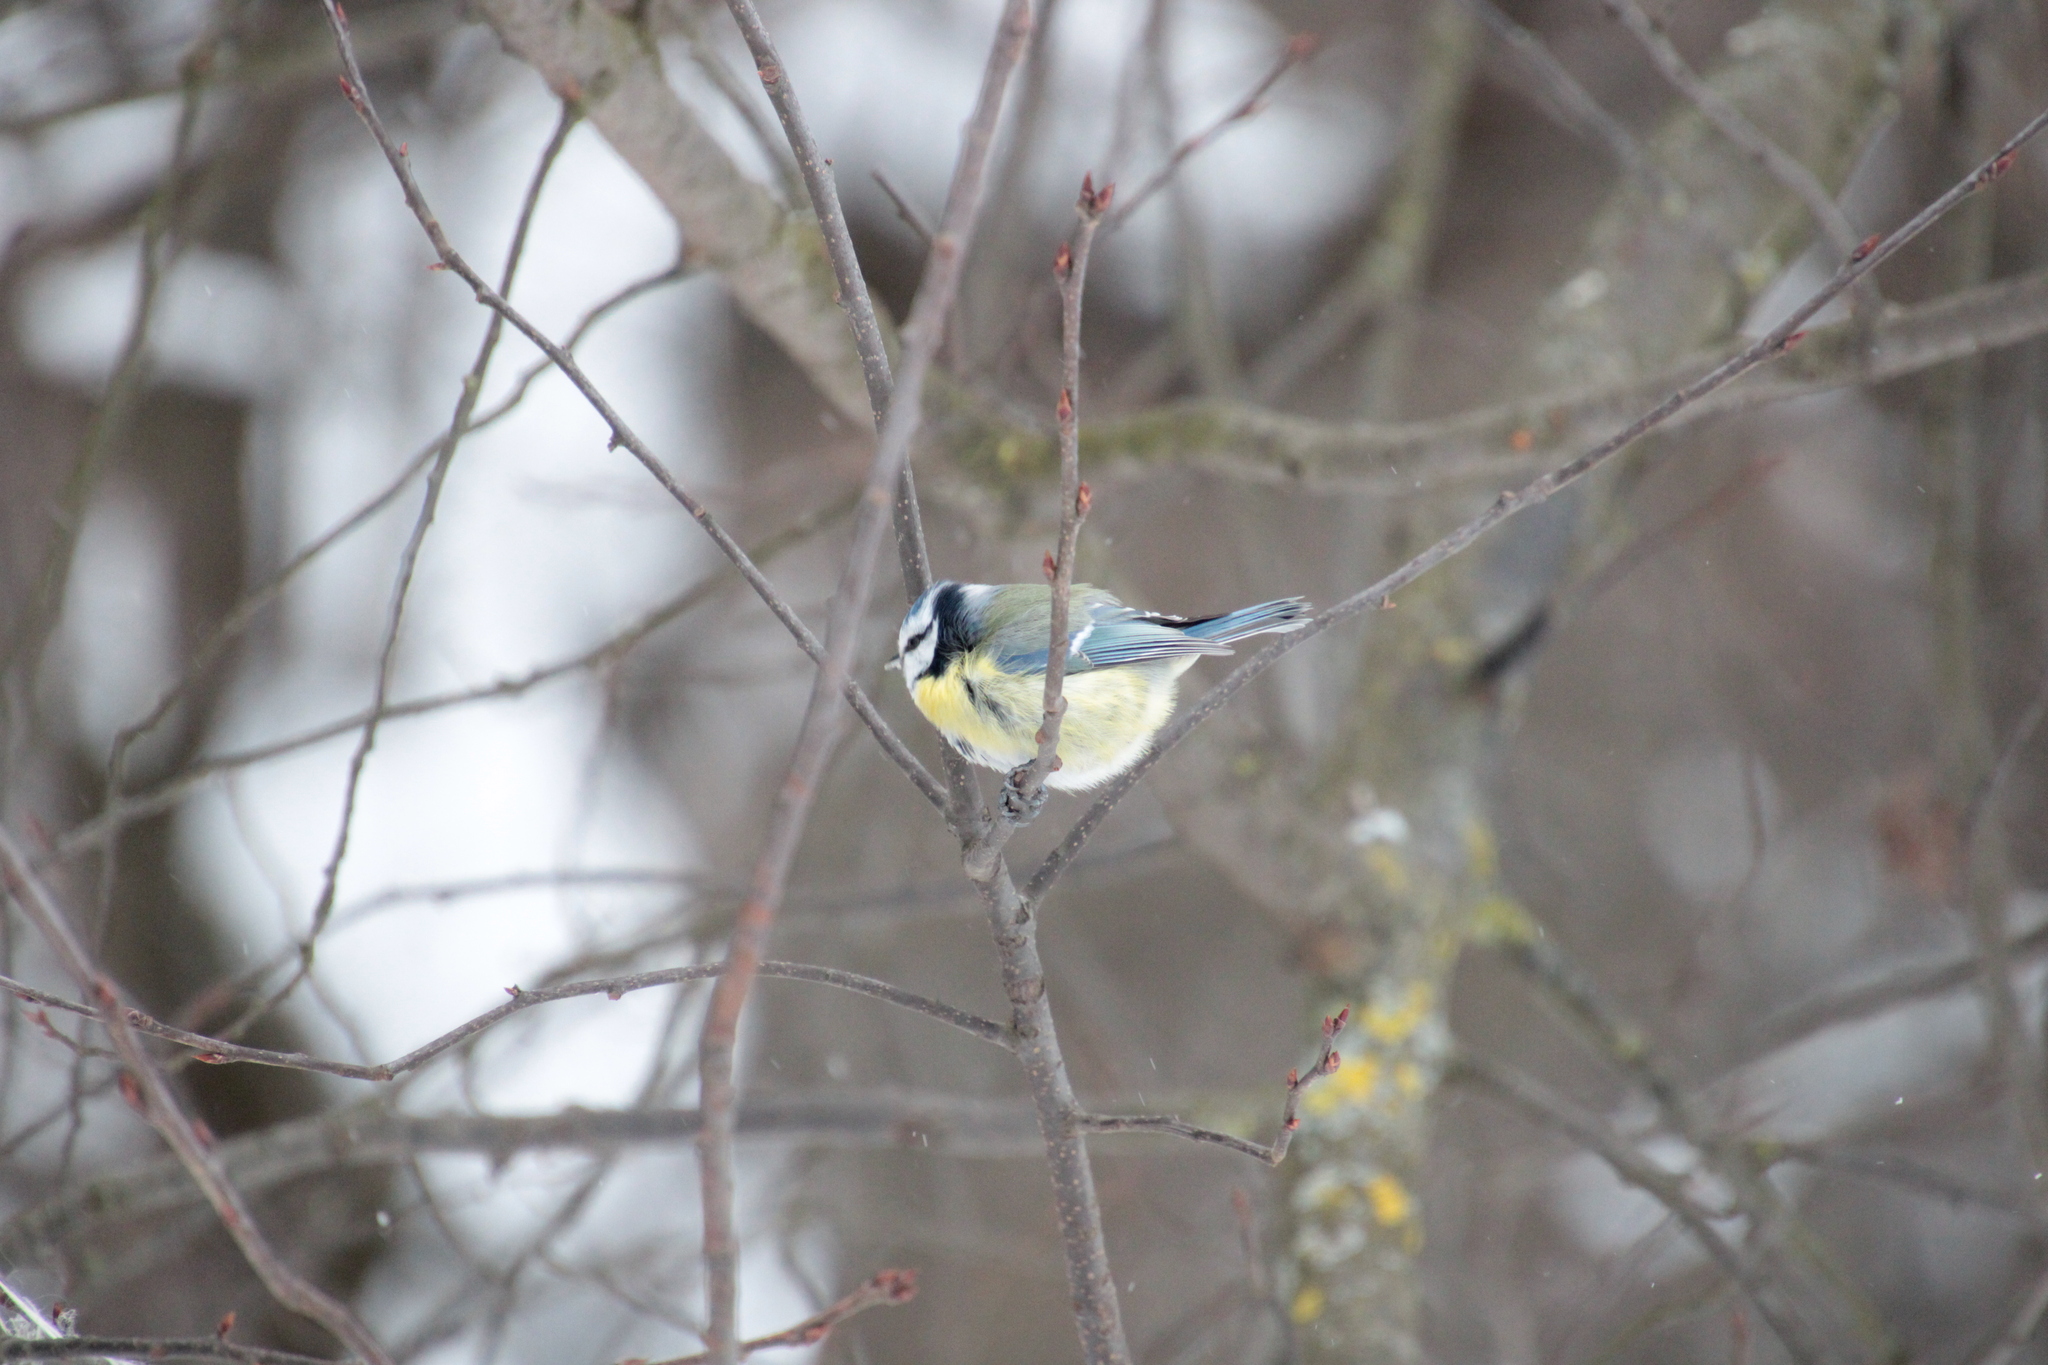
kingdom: Animalia
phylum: Chordata
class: Aves
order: Passeriformes
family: Paridae
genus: Cyanistes
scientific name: Cyanistes caeruleus
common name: Eurasian blue tit
